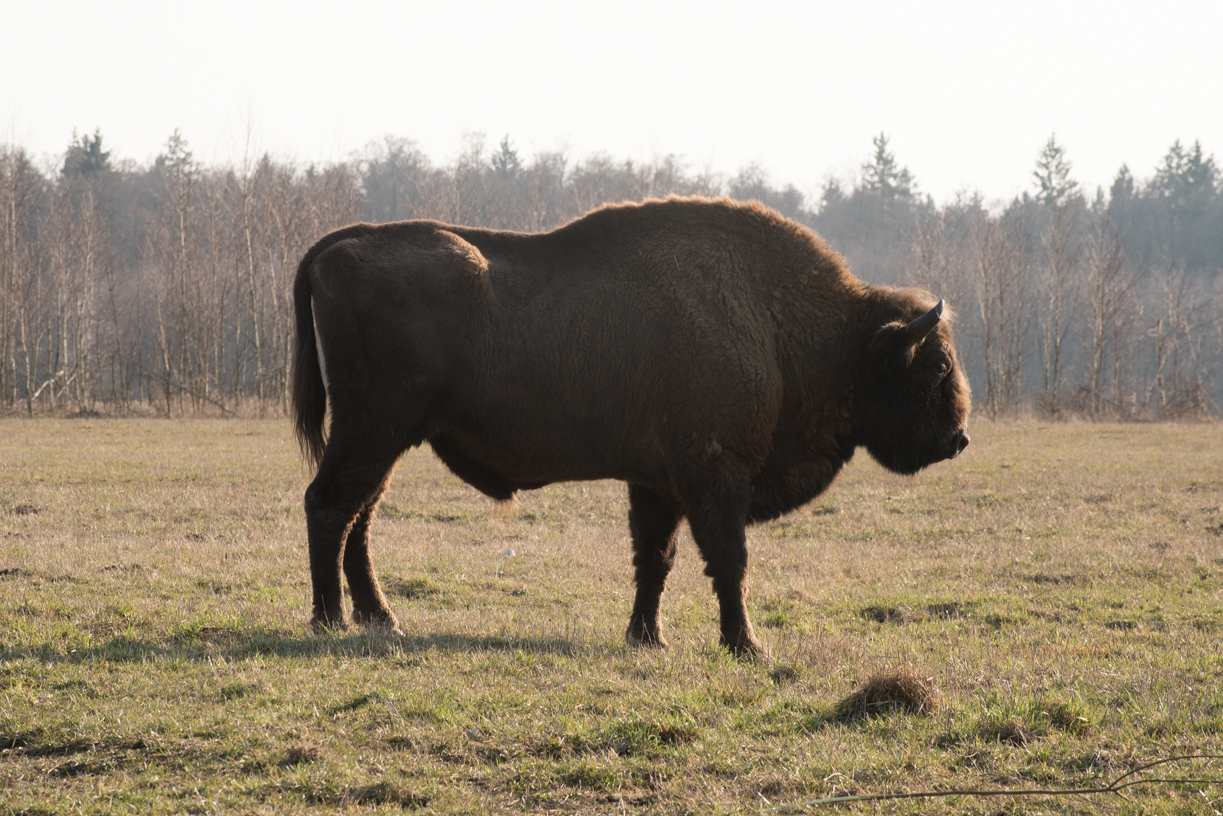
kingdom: Animalia
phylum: Chordata
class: Mammalia
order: Artiodactyla
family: Bovidae
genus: Bison
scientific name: Bison bonasus
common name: European bison
